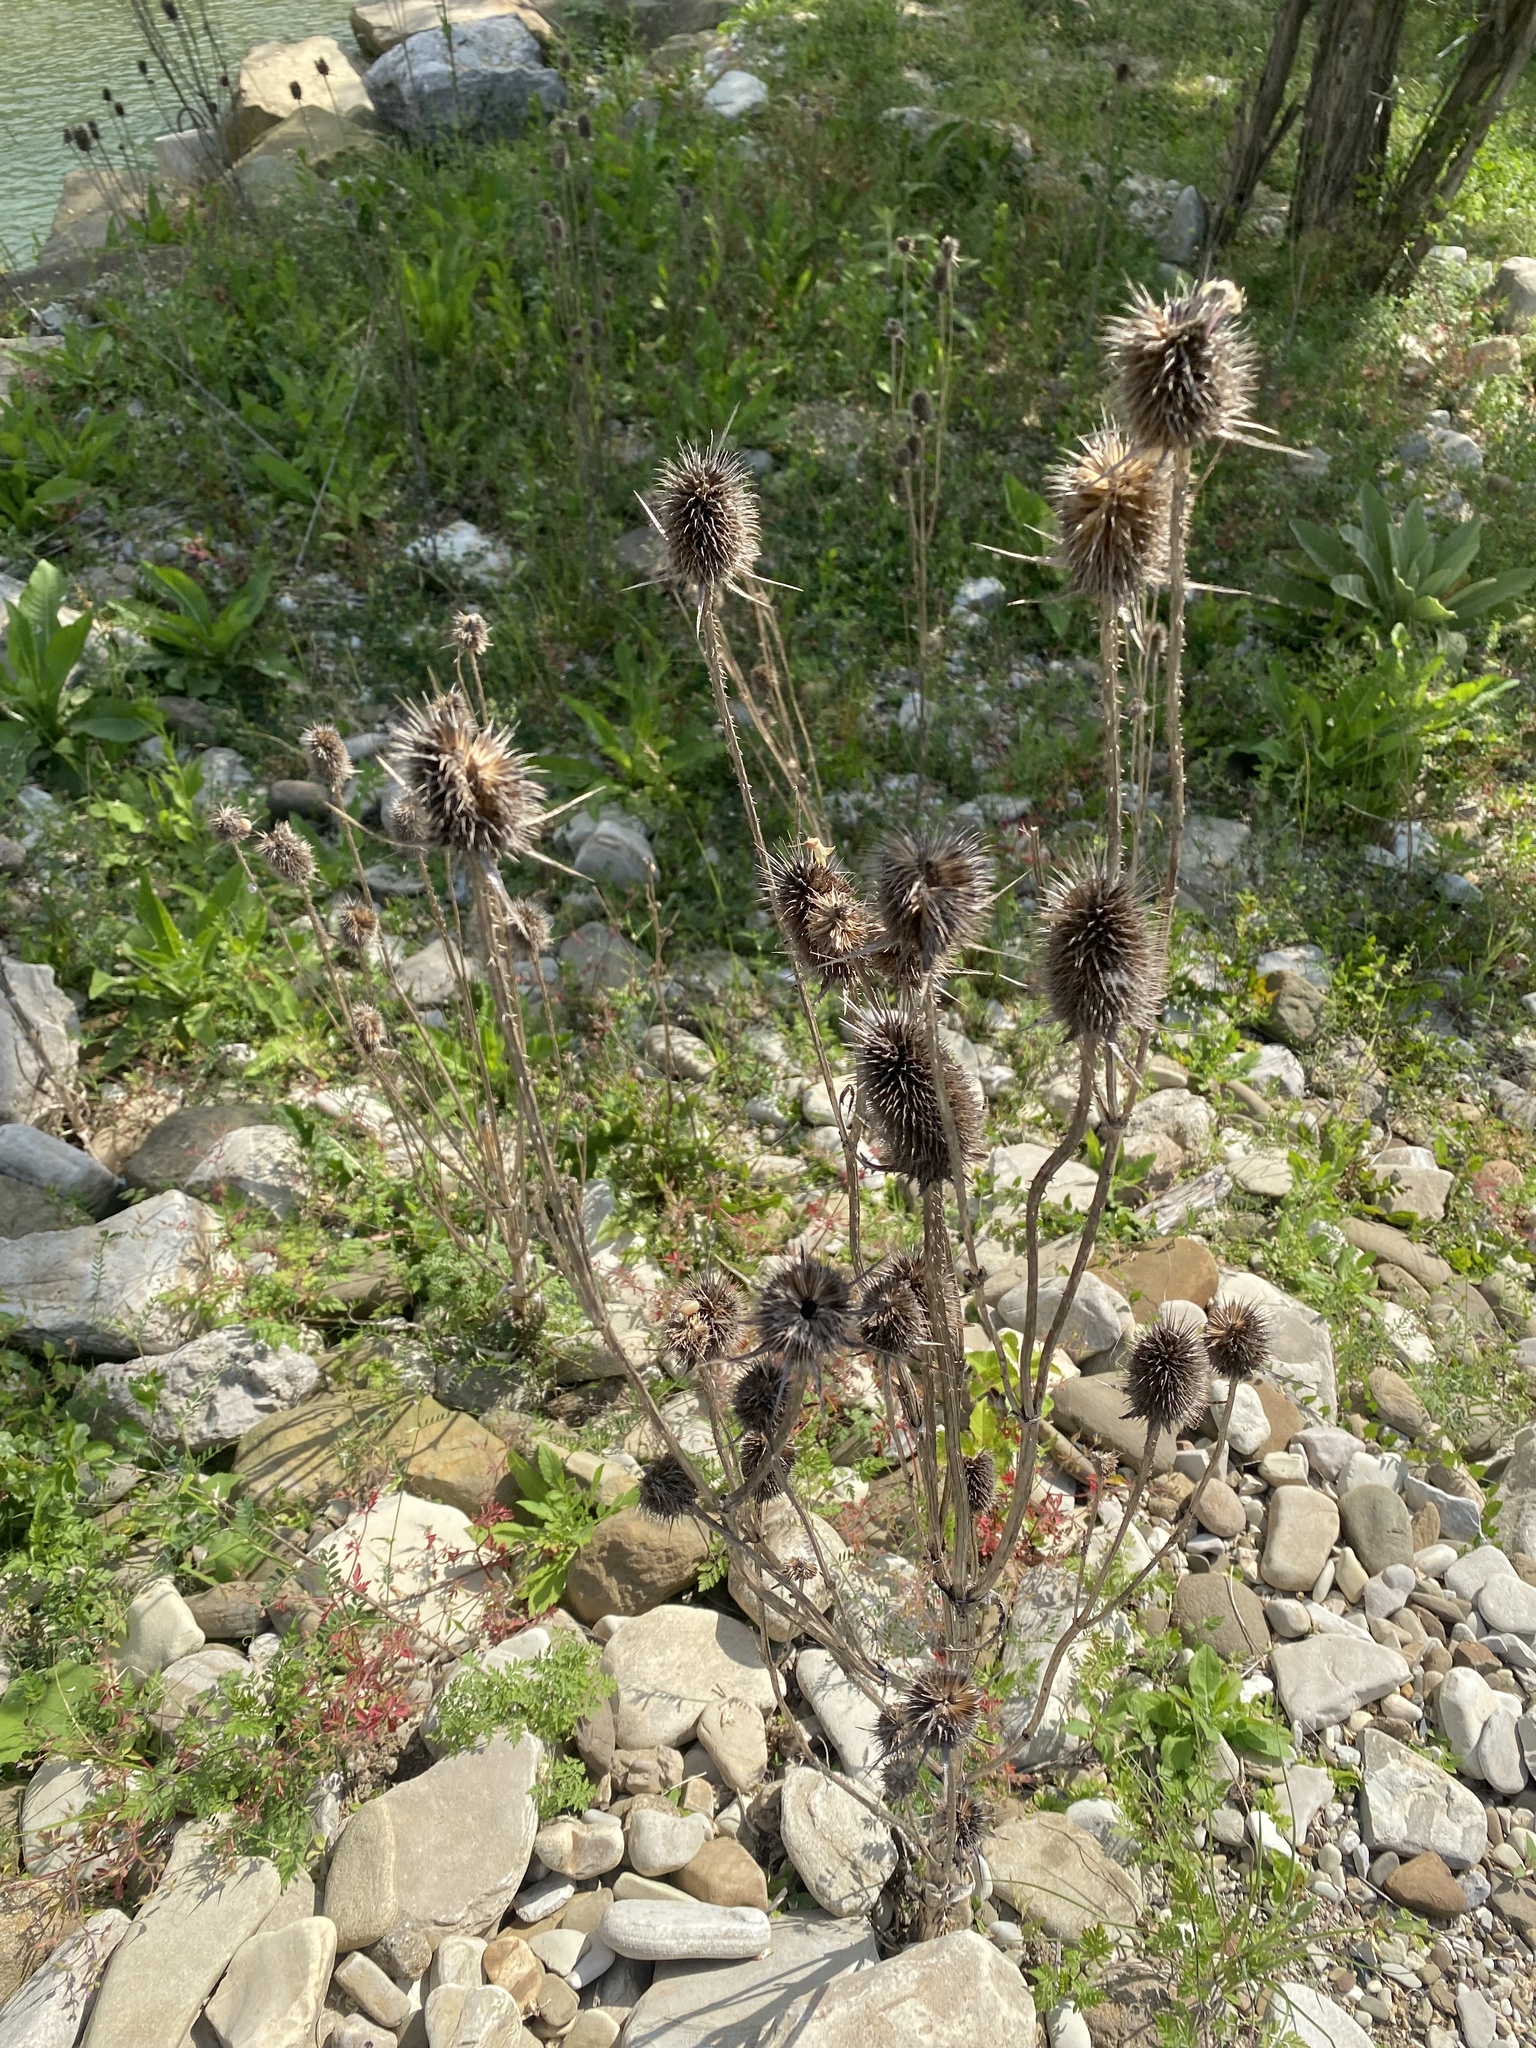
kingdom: Plantae
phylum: Tracheophyta
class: Magnoliopsida
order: Dipsacales
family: Caprifoliaceae
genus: Dipsacus
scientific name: Dipsacus laciniatus
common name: Cut-leaved teasel
